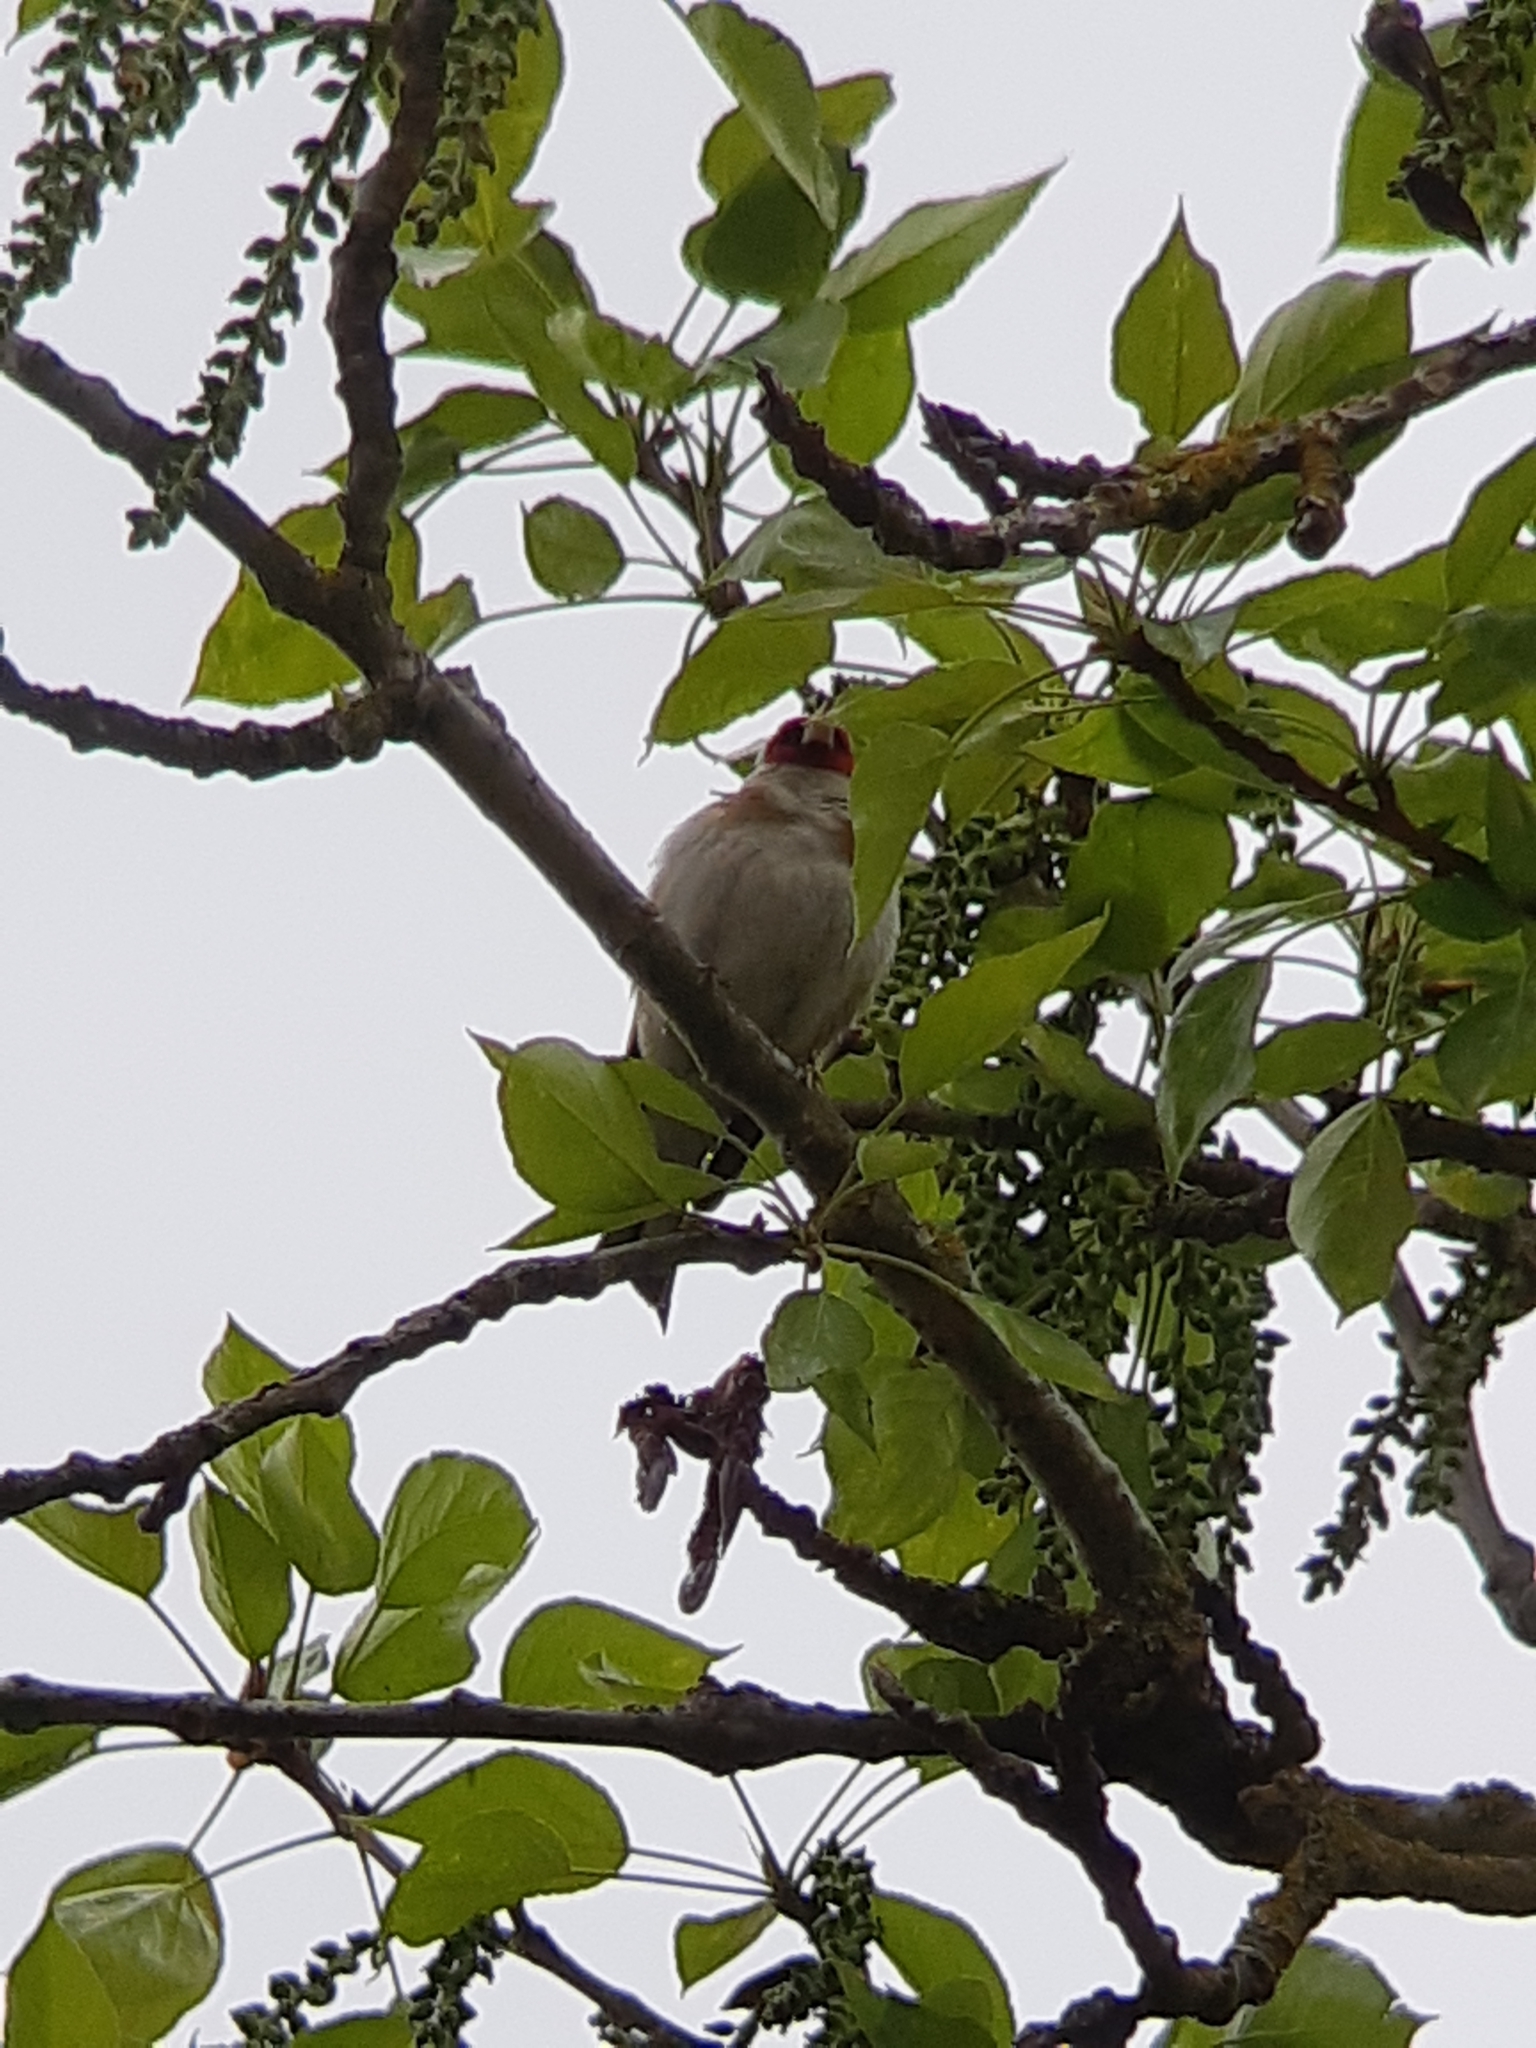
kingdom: Animalia
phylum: Chordata
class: Aves
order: Passeriformes
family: Fringillidae
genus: Carduelis
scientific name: Carduelis carduelis
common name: European goldfinch
